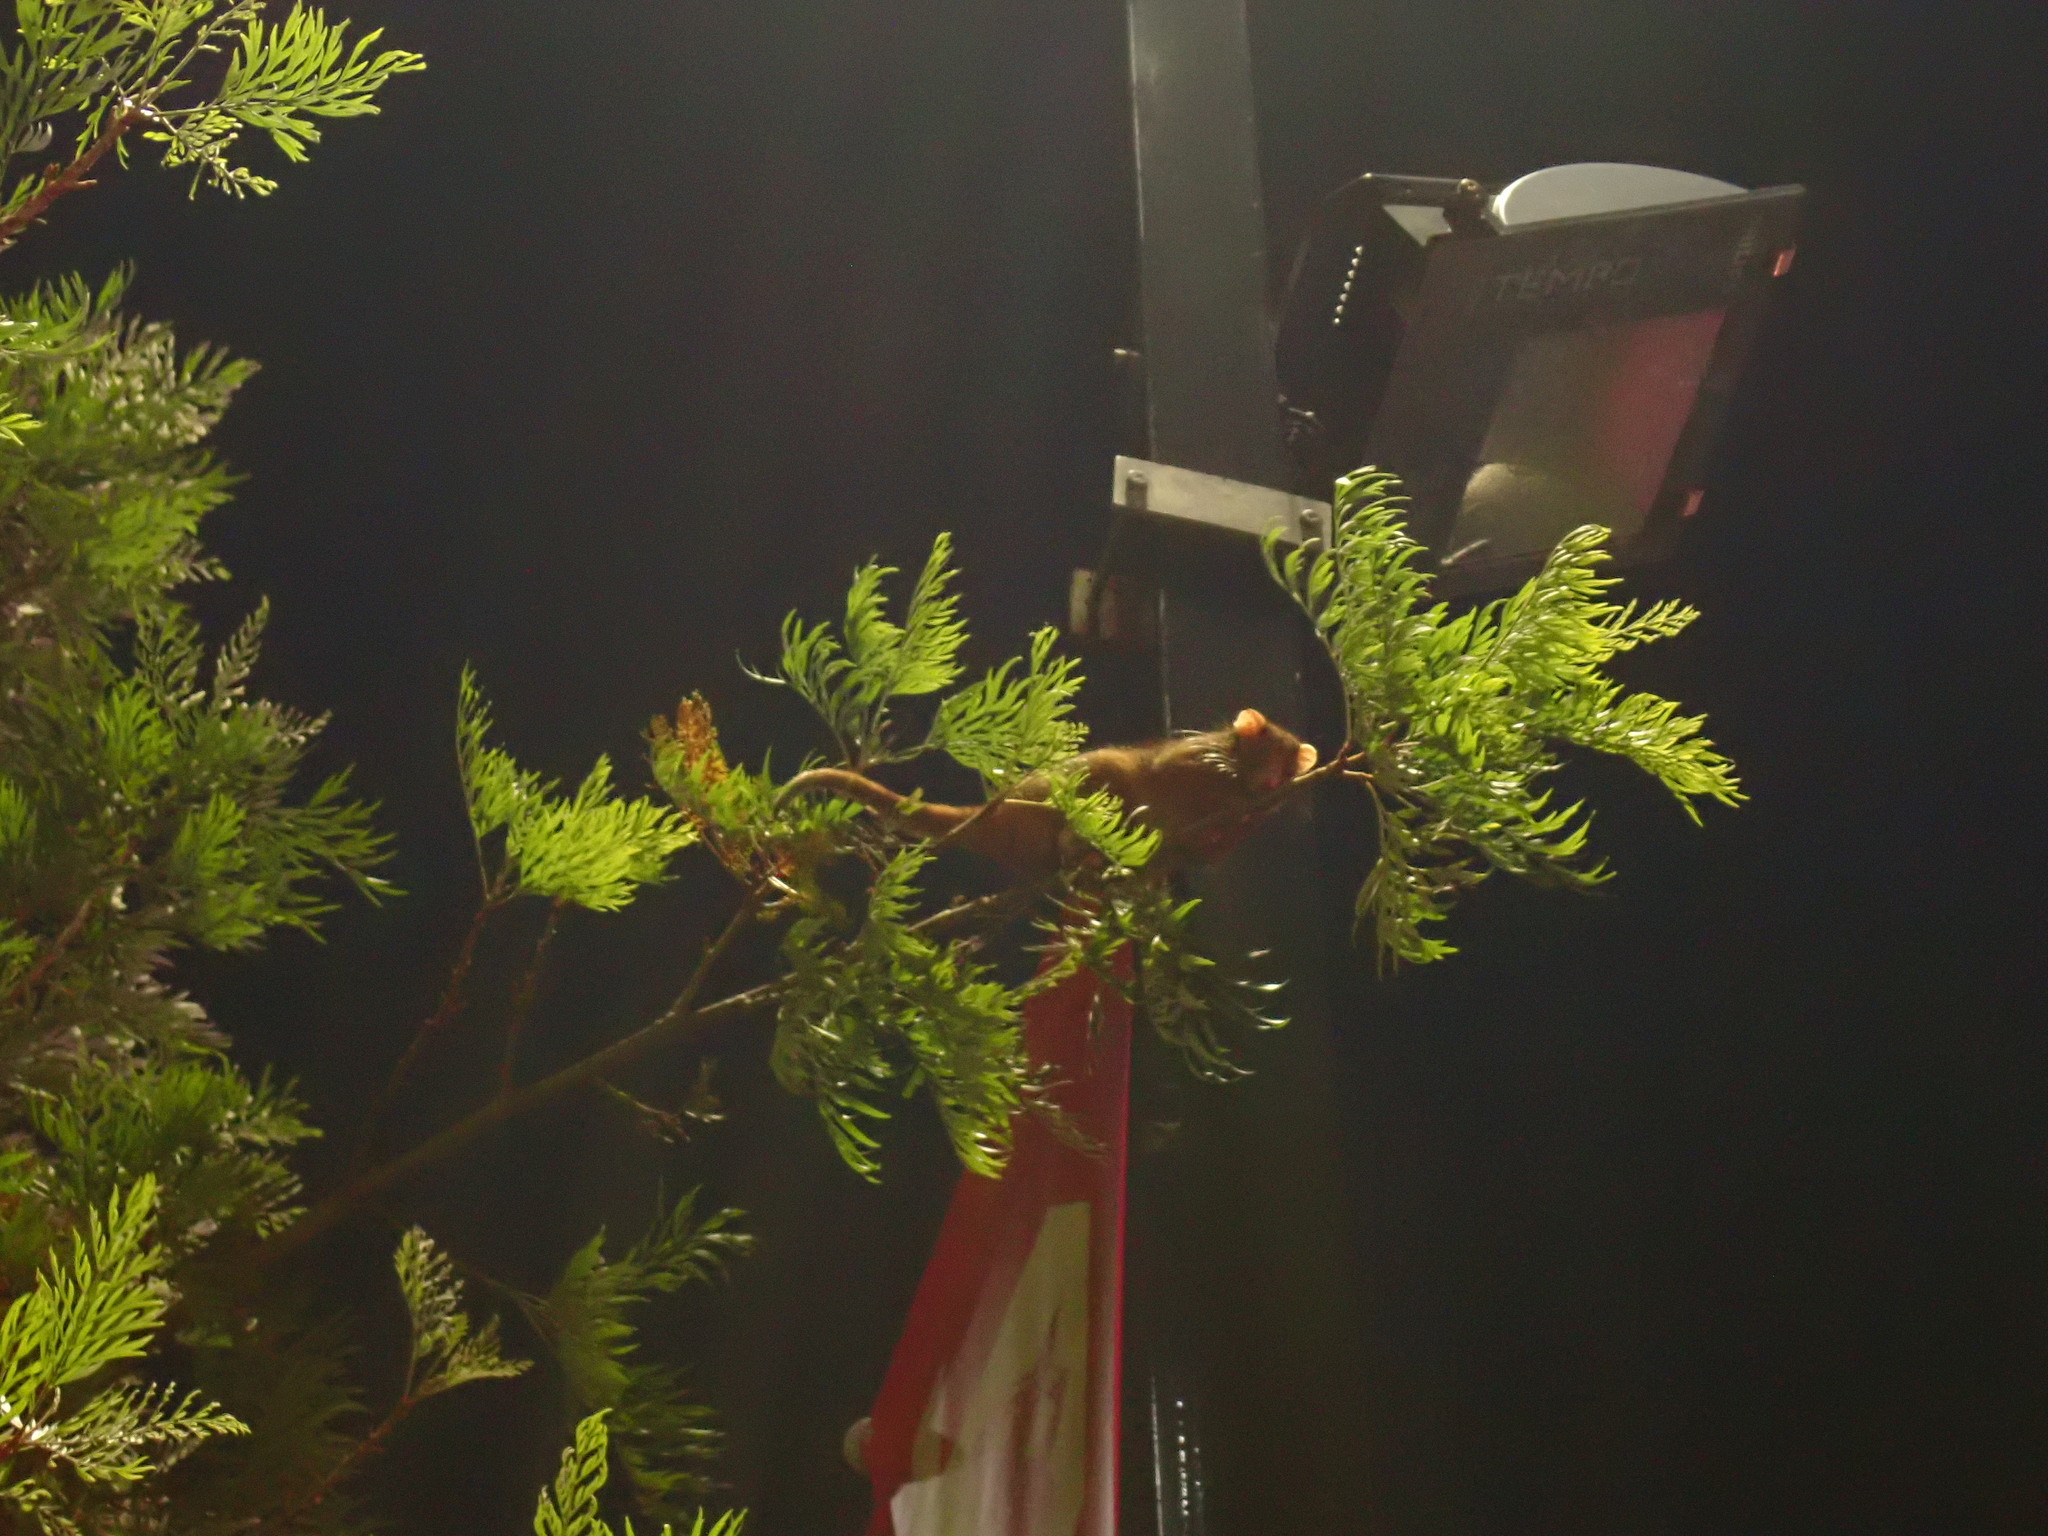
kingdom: Animalia
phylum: Chordata
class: Mammalia
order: Diprotodontia
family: Pseudocheiridae
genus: Pseudocheirus
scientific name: Pseudocheirus peregrinus
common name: Common ringtail possum
